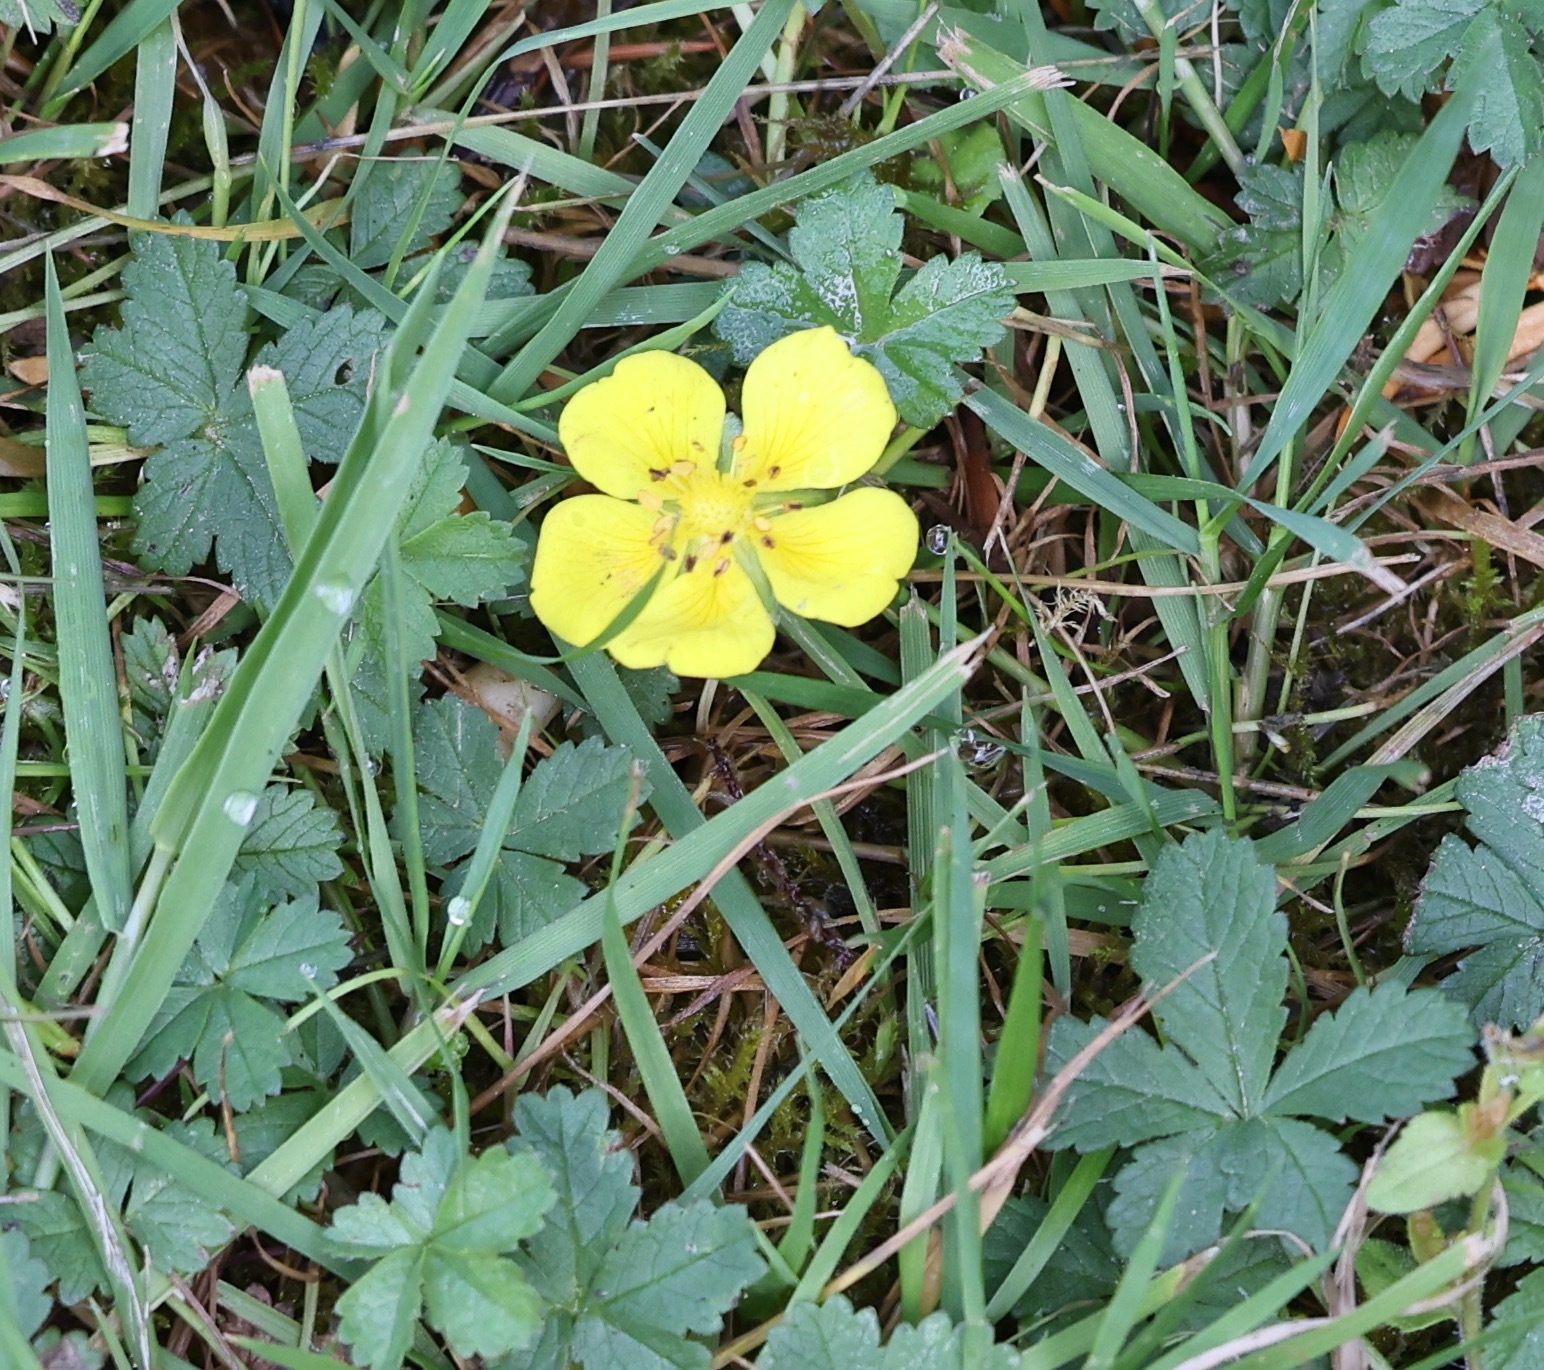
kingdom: Plantae
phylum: Tracheophyta
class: Magnoliopsida
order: Rosales
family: Rosaceae
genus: Potentilla
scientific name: Potentilla reptans
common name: Creeping cinquefoil
